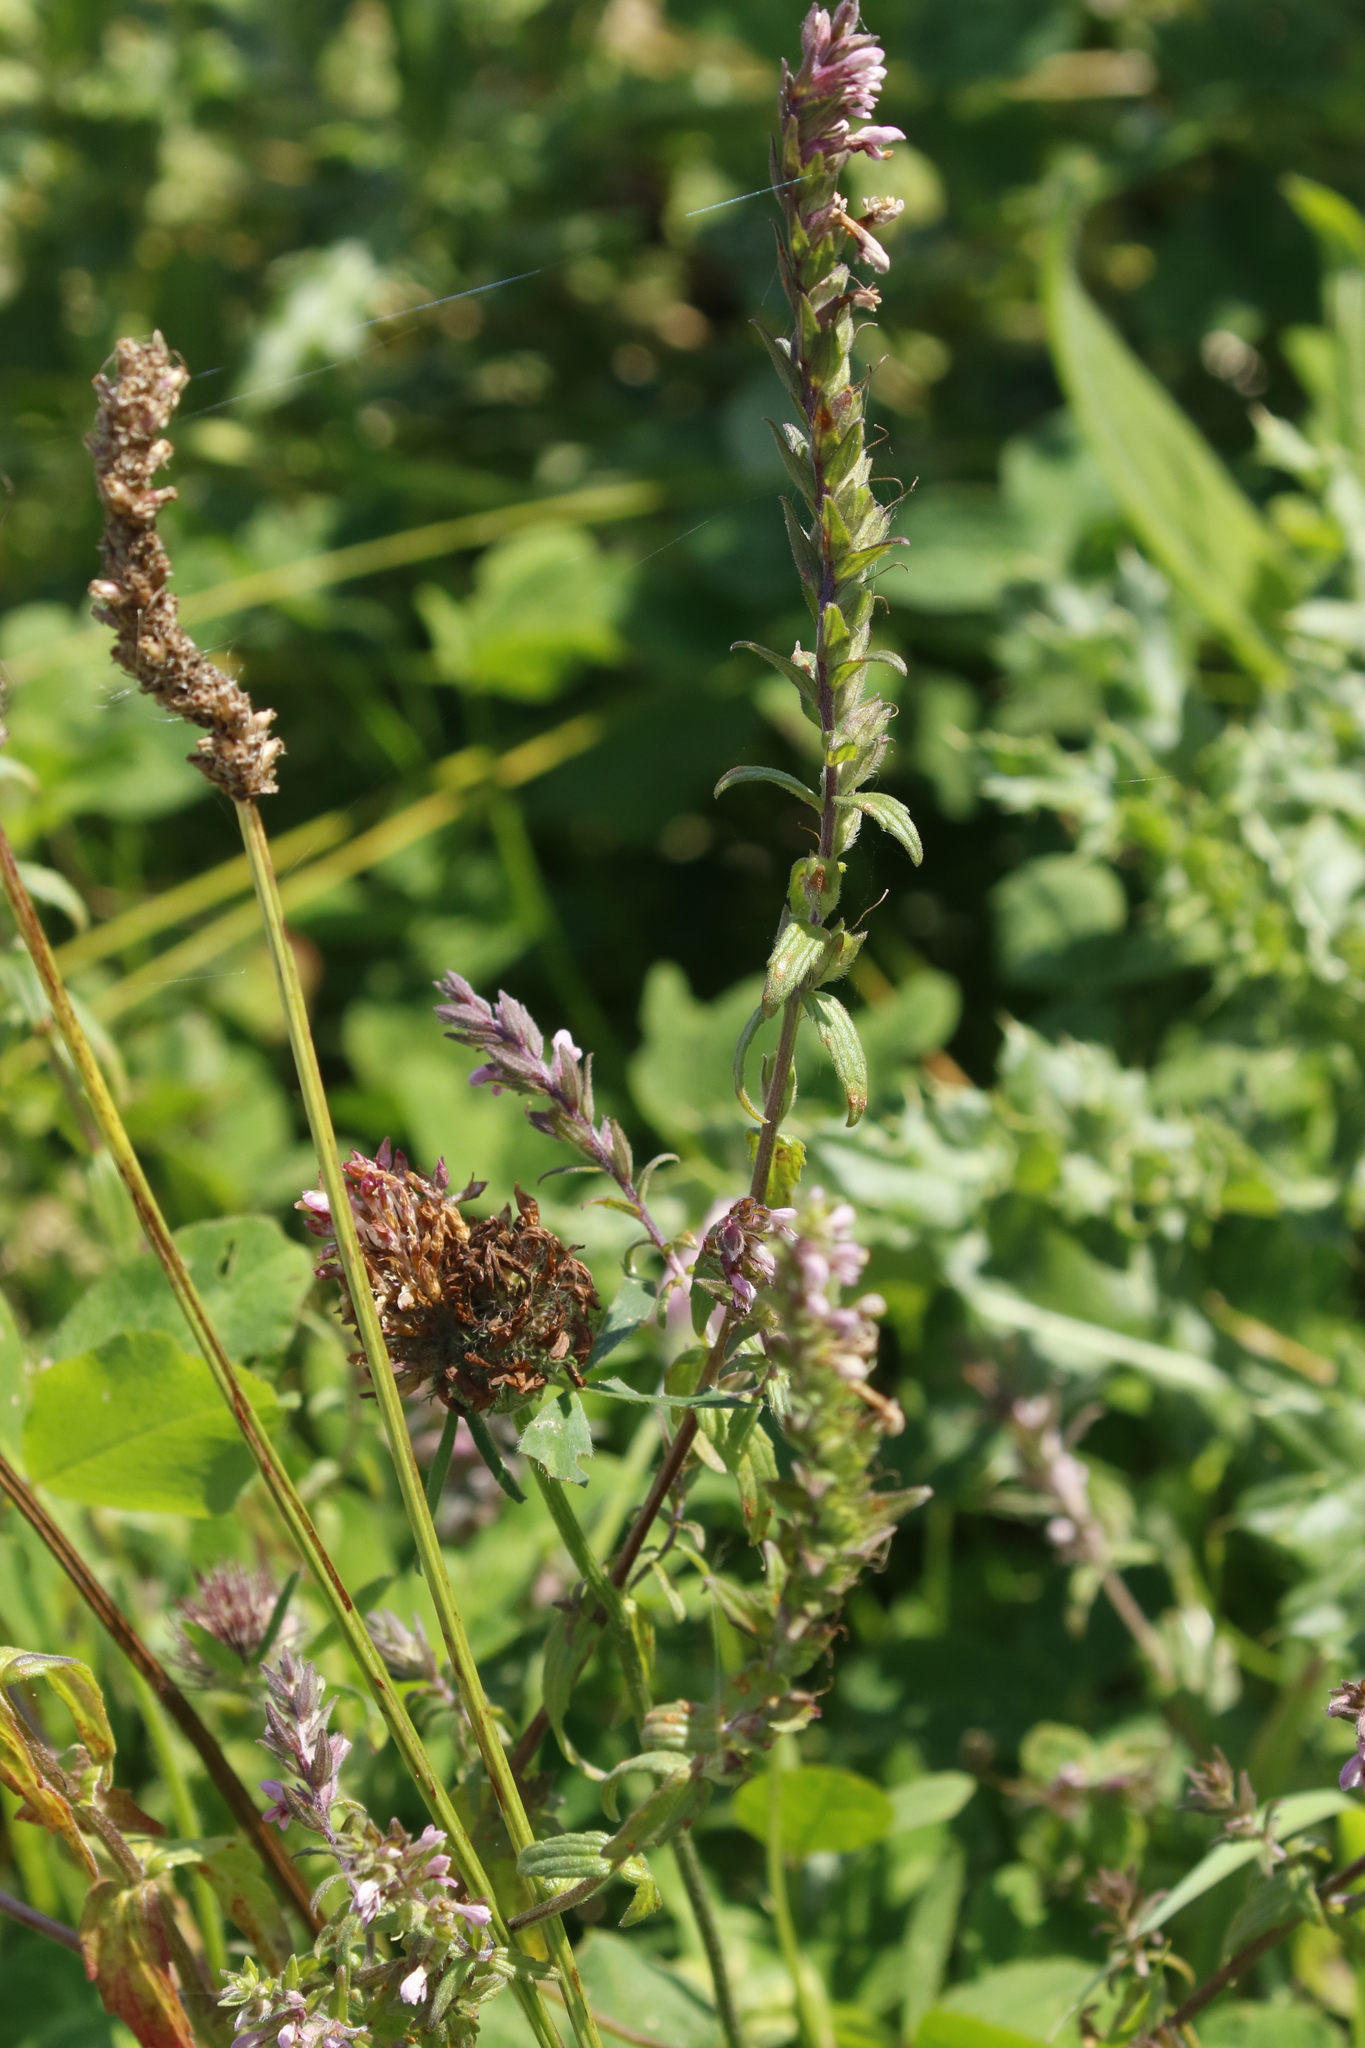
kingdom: Plantae
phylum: Tracheophyta
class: Magnoliopsida
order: Lamiales
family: Orobanchaceae
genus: Odontites
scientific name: Odontites vulgaris
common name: Broomrape
